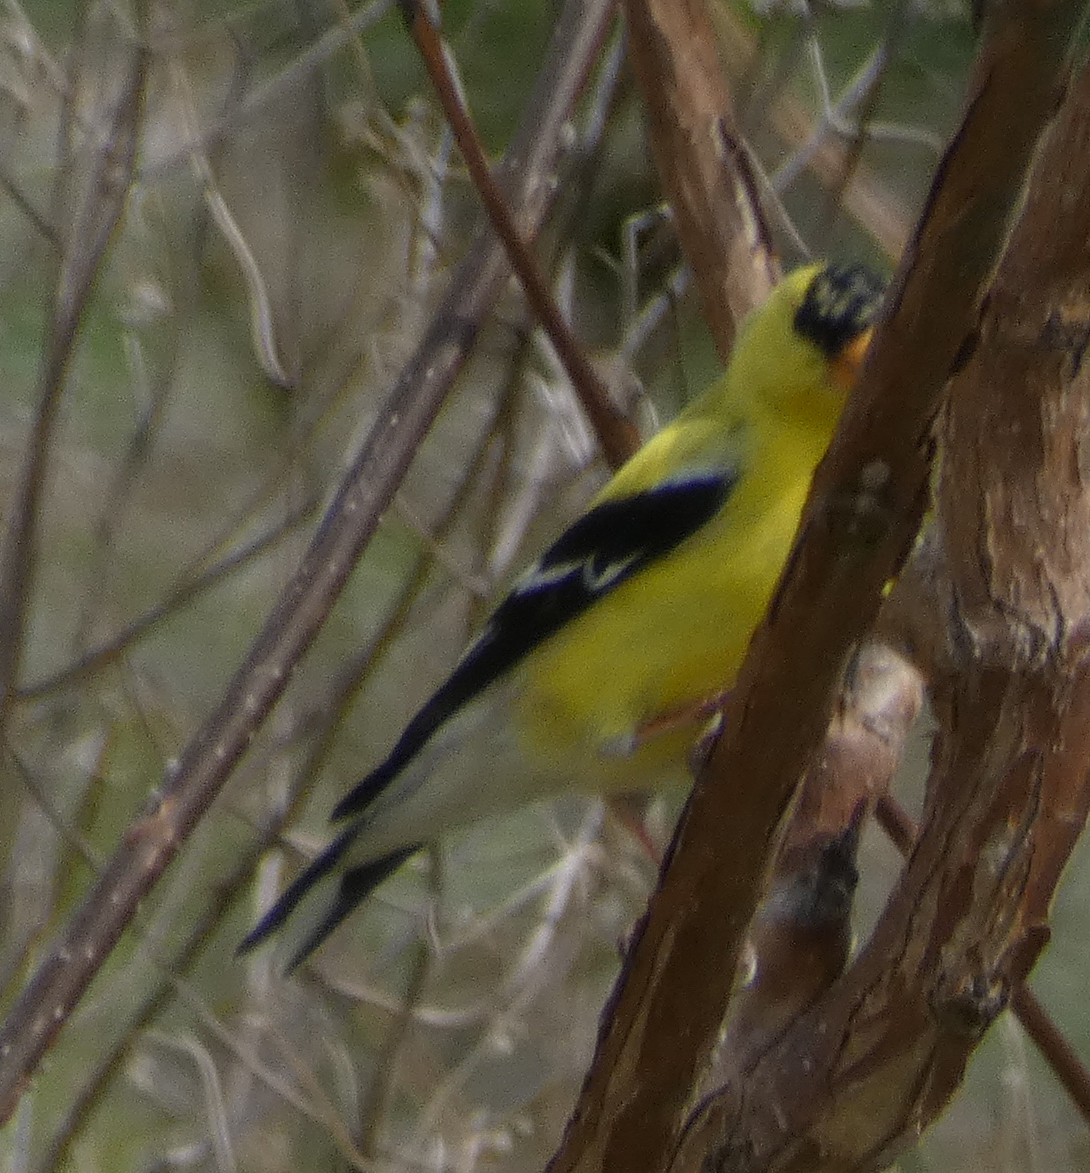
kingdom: Animalia
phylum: Chordata
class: Aves
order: Passeriformes
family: Fringillidae
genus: Spinus
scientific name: Spinus tristis
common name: American goldfinch
